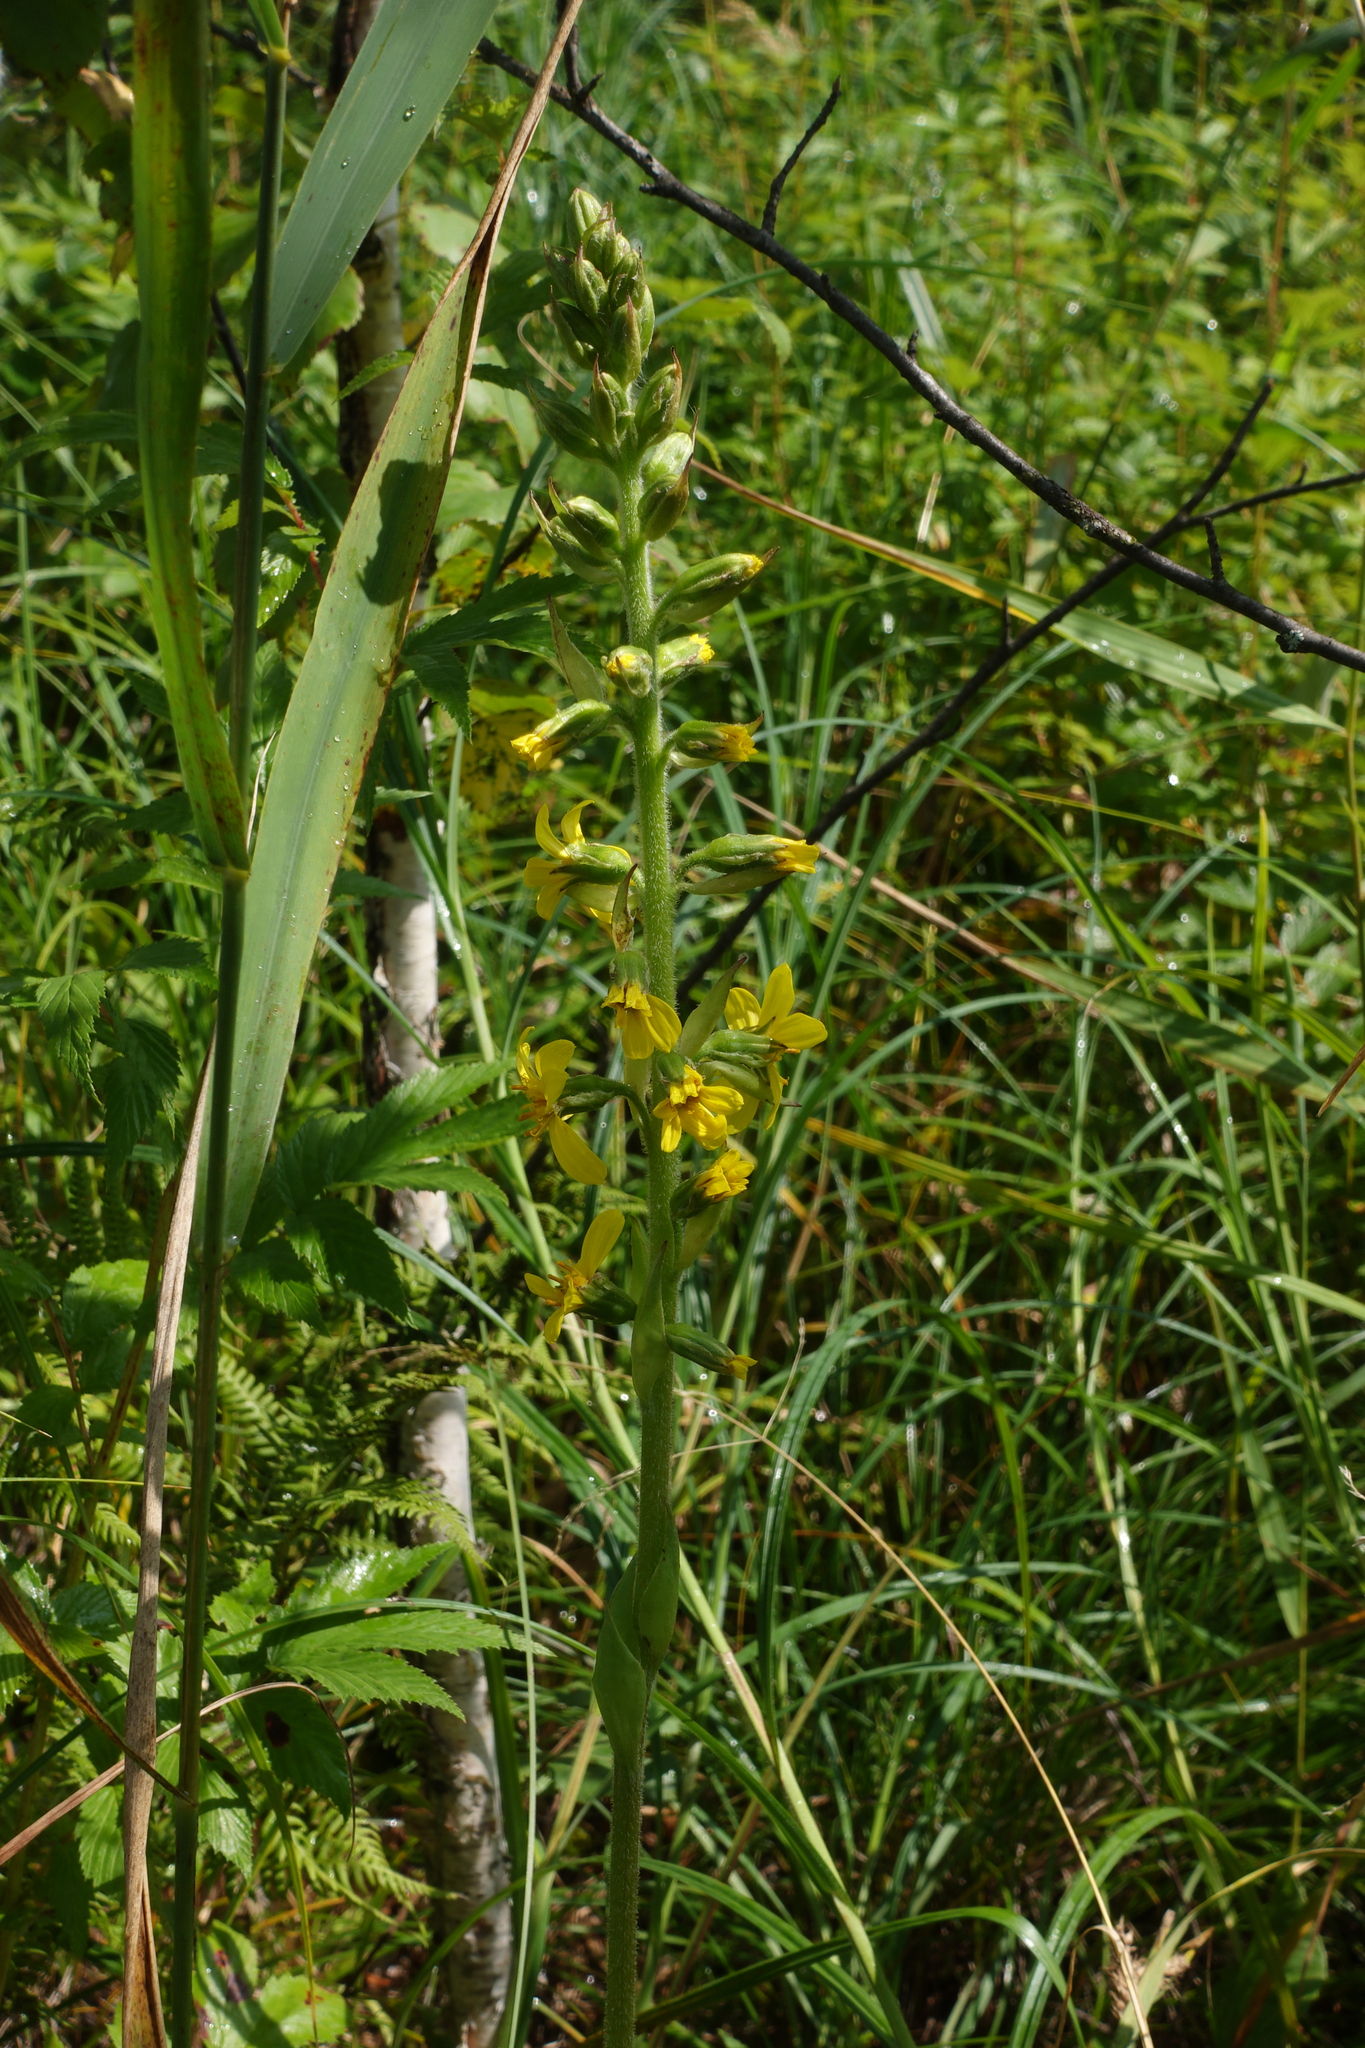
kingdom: Plantae
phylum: Tracheophyta
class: Magnoliopsida
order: Asterales
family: Asteraceae
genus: Ligularia
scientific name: Ligularia sibirica
